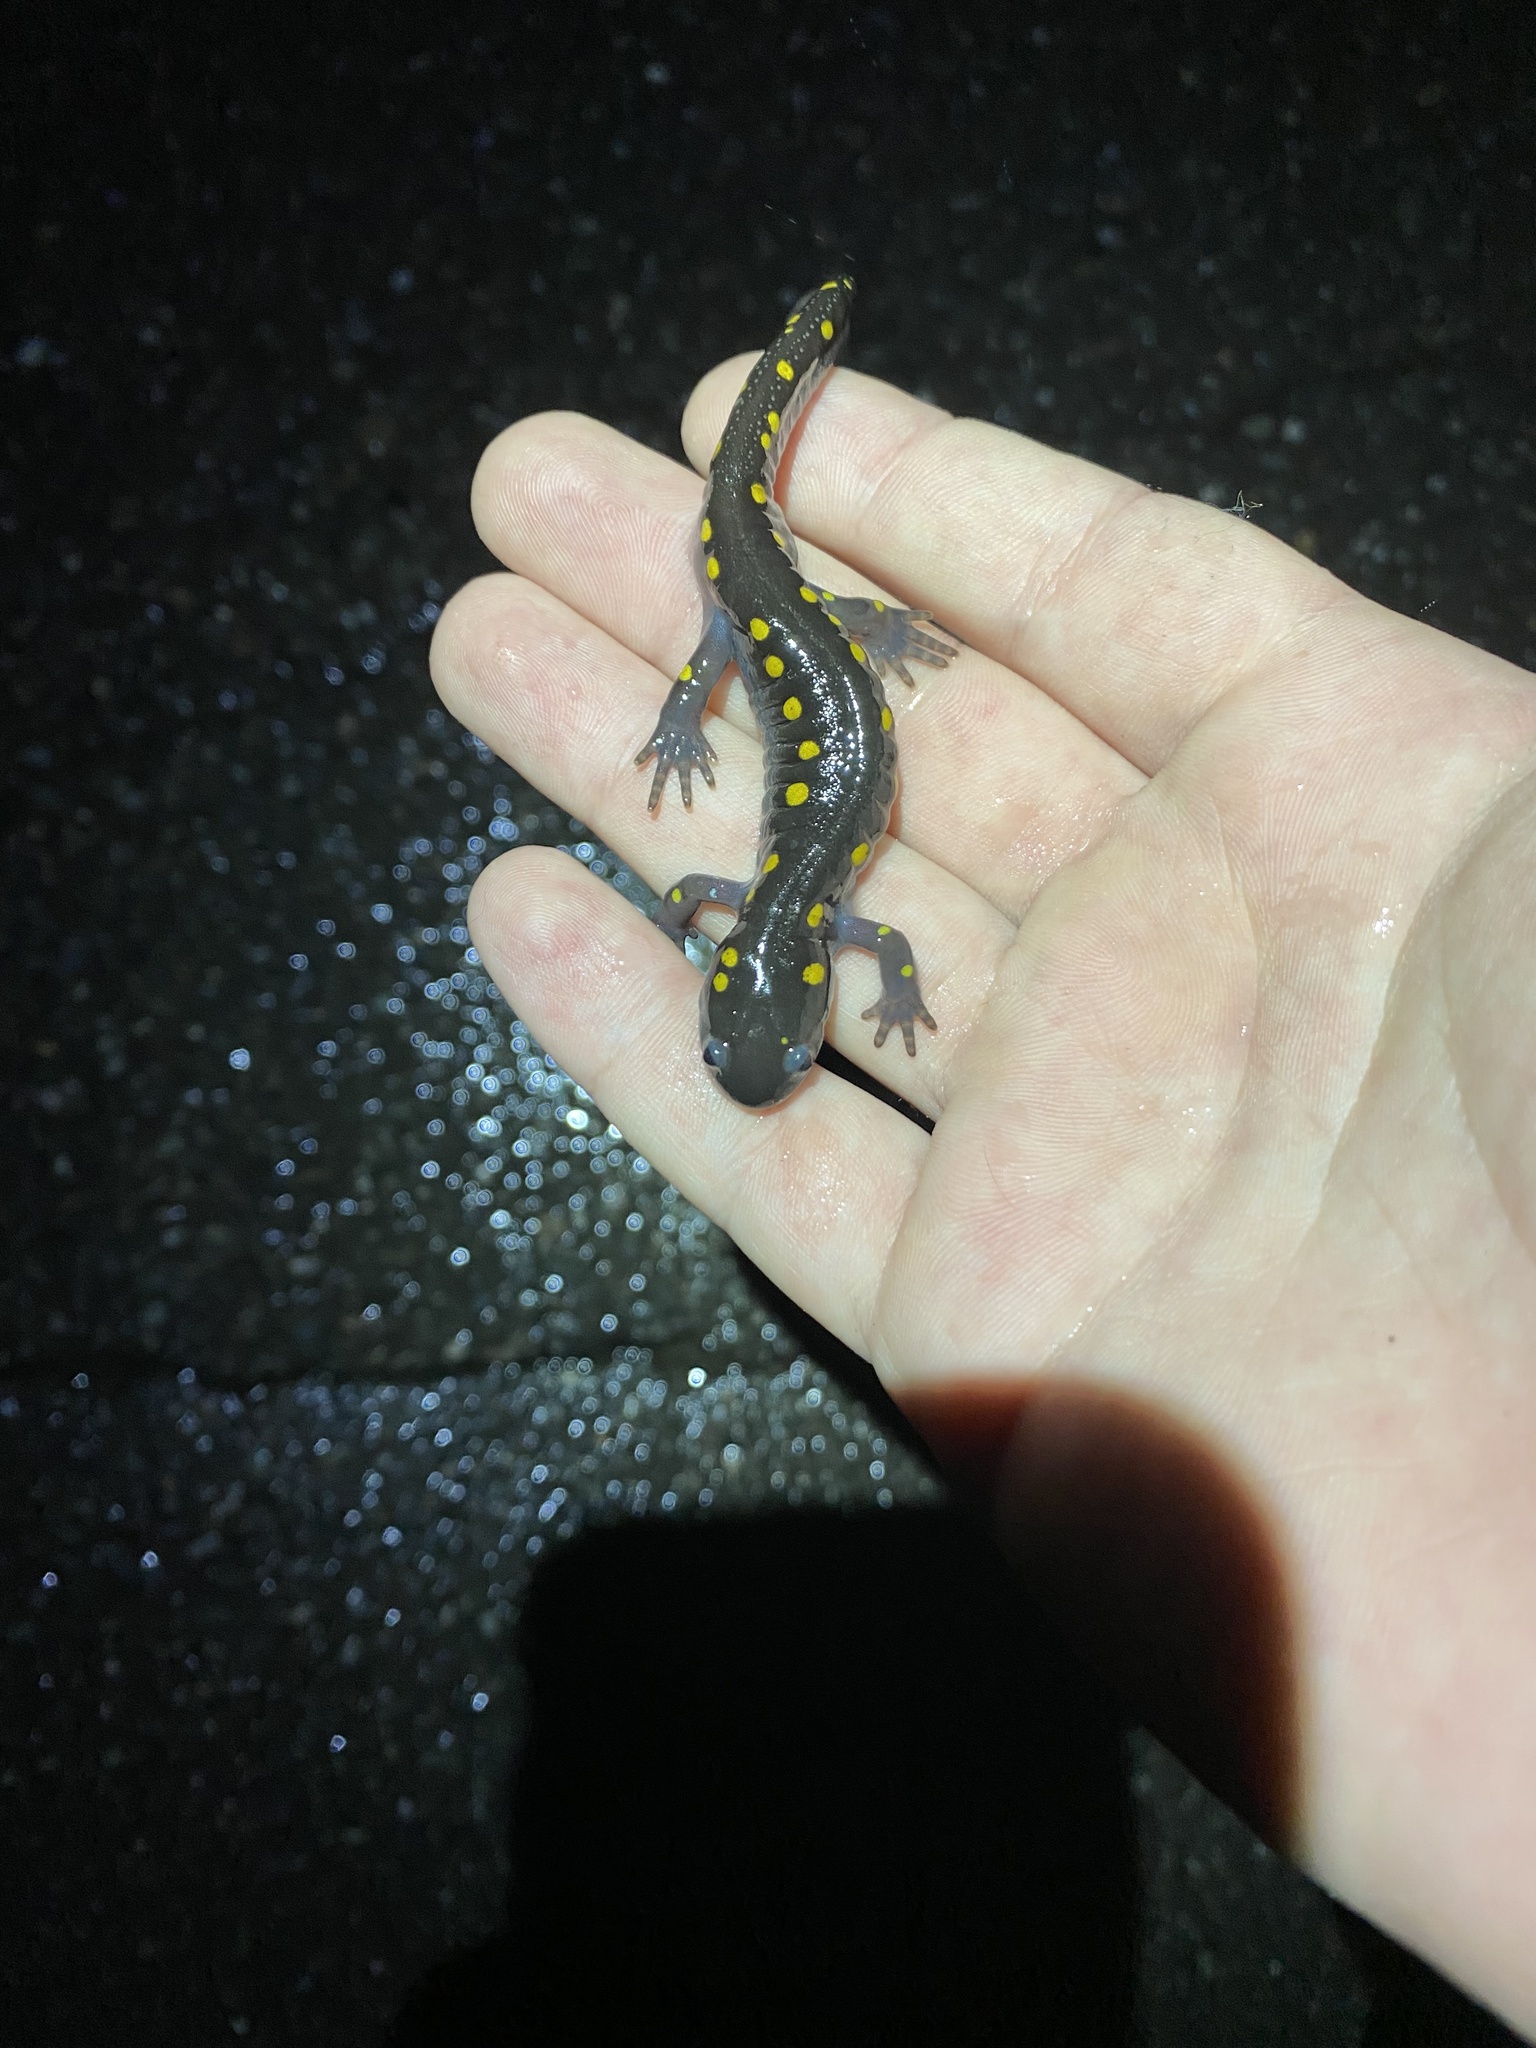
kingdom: Animalia
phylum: Chordata
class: Amphibia
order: Caudata
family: Ambystomatidae
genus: Ambystoma
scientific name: Ambystoma maculatum
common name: Spotted salamander
